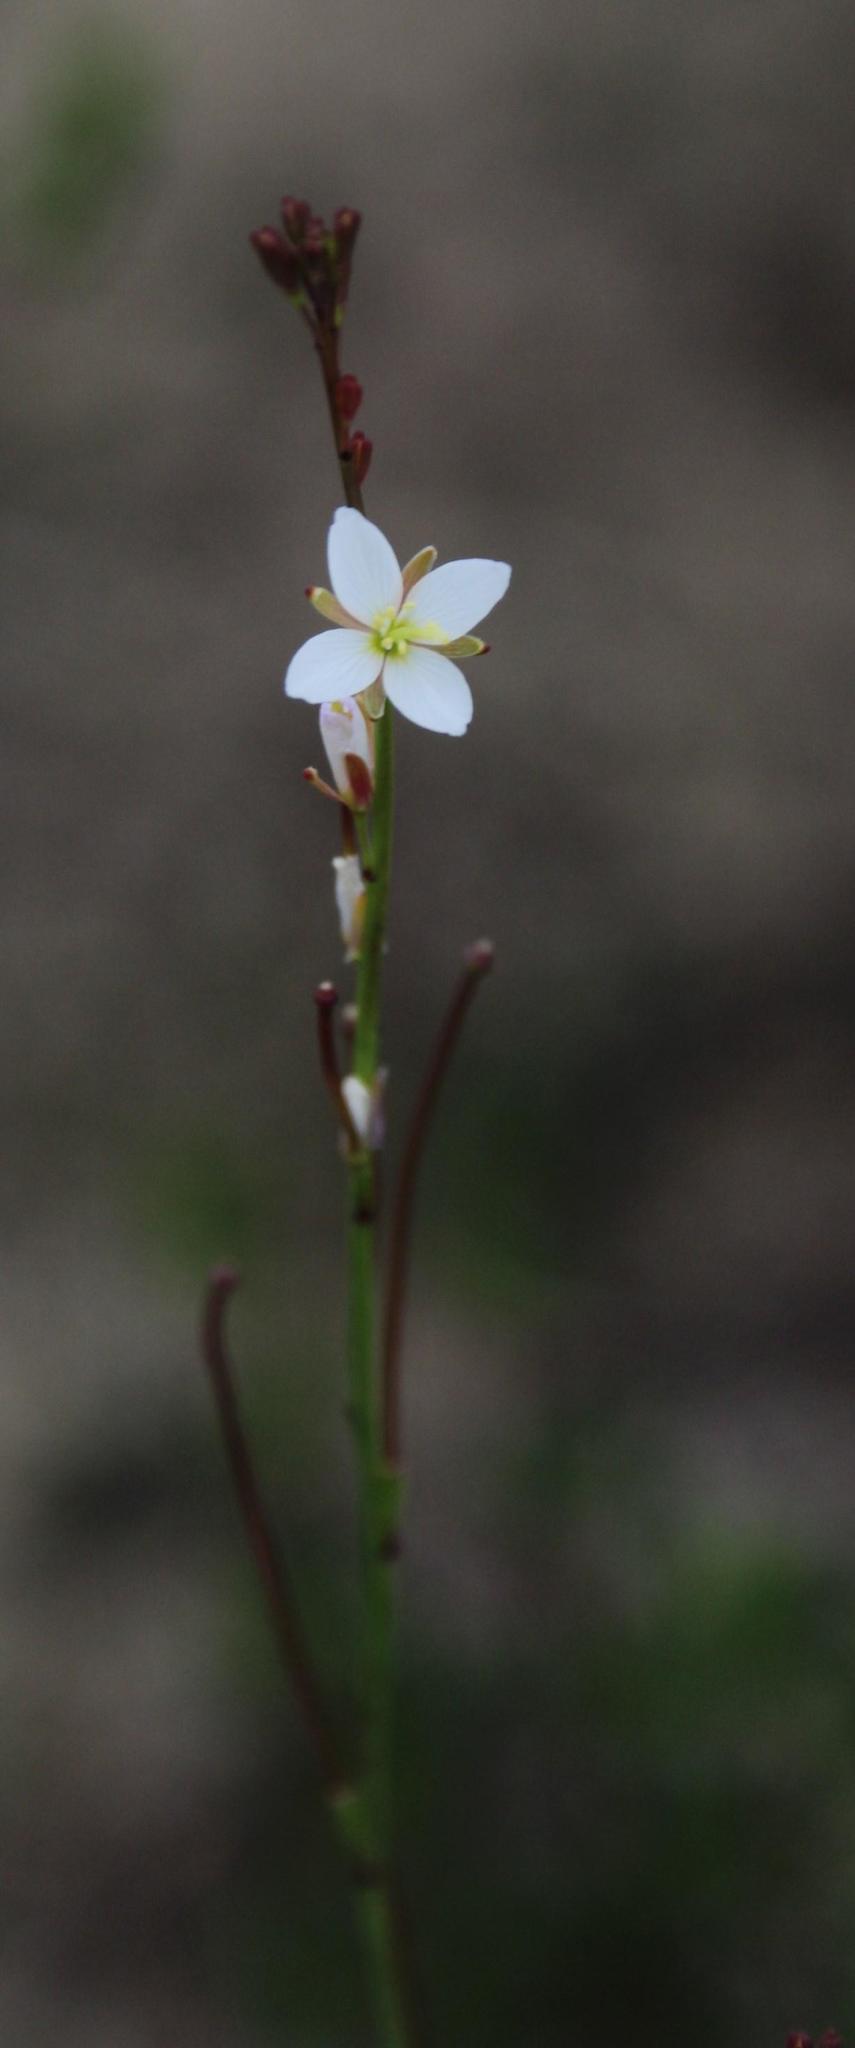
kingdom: Plantae
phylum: Tracheophyta
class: Magnoliopsida
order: Brassicales
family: Brassicaceae
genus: Heliophila
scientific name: Heliophila adpressa
